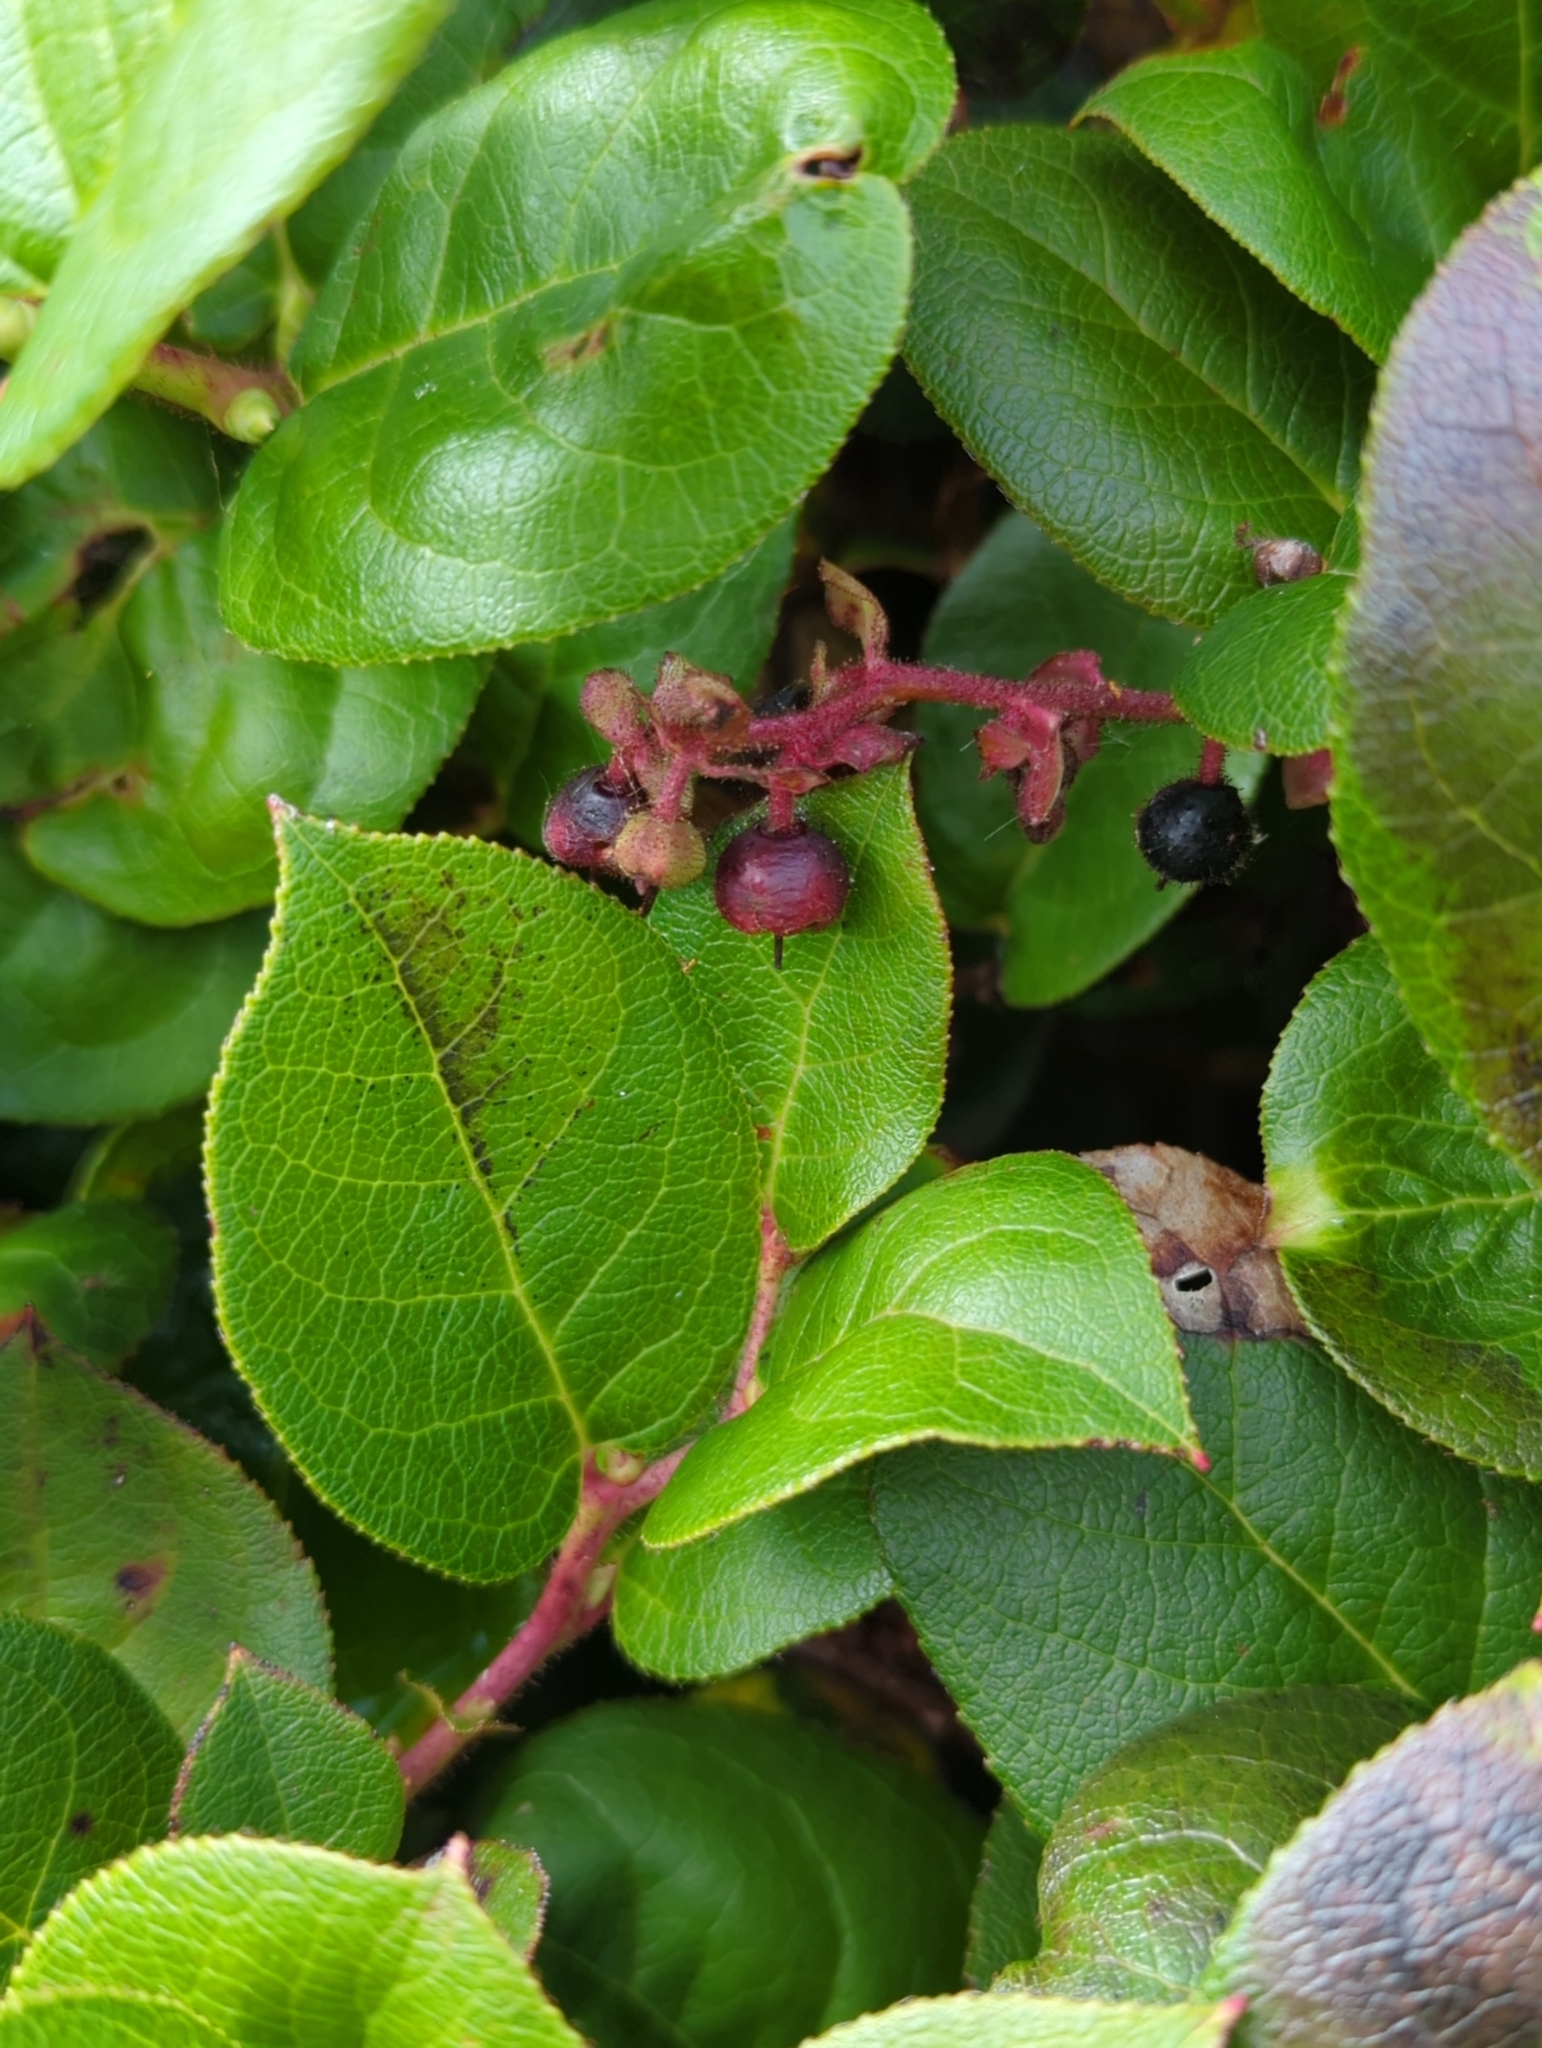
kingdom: Plantae
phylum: Tracheophyta
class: Magnoliopsida
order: Ericales
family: Ericaceae
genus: Gaultheria
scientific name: Gaultheria shallon
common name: Shallon
